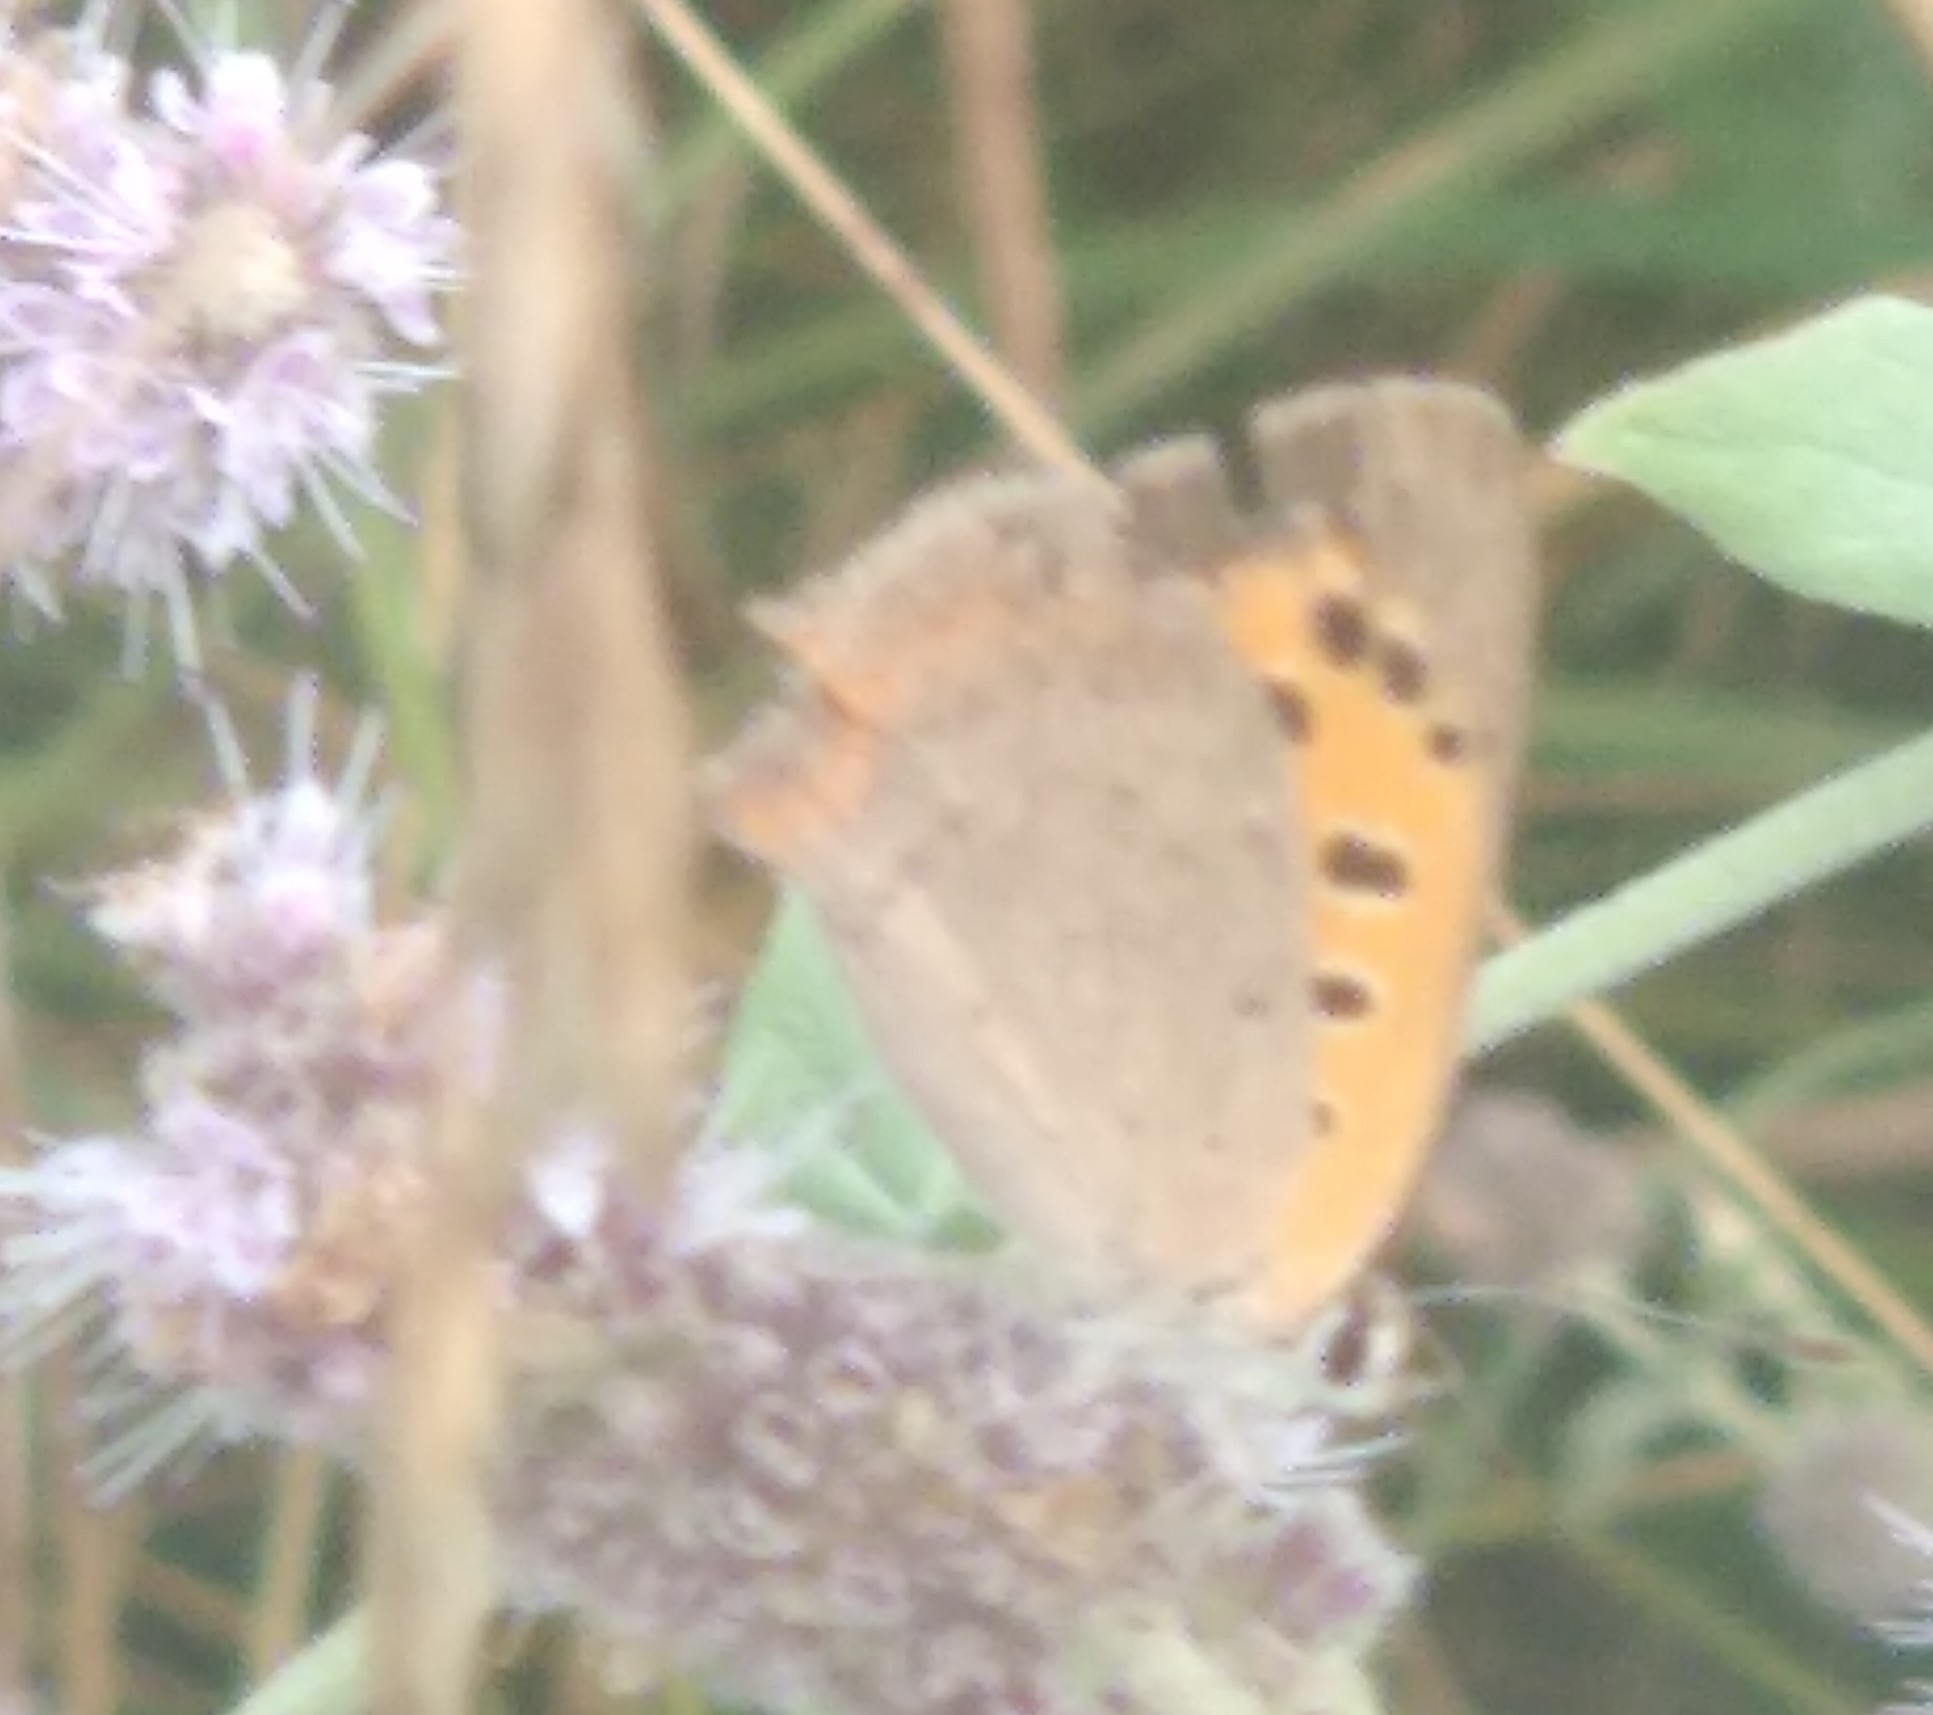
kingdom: Animalia
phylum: Arthropoda
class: Insecta
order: Lepidoptera
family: Lycaenidae
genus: Lycaena
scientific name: Lycaena phlaeas
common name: Small copper
